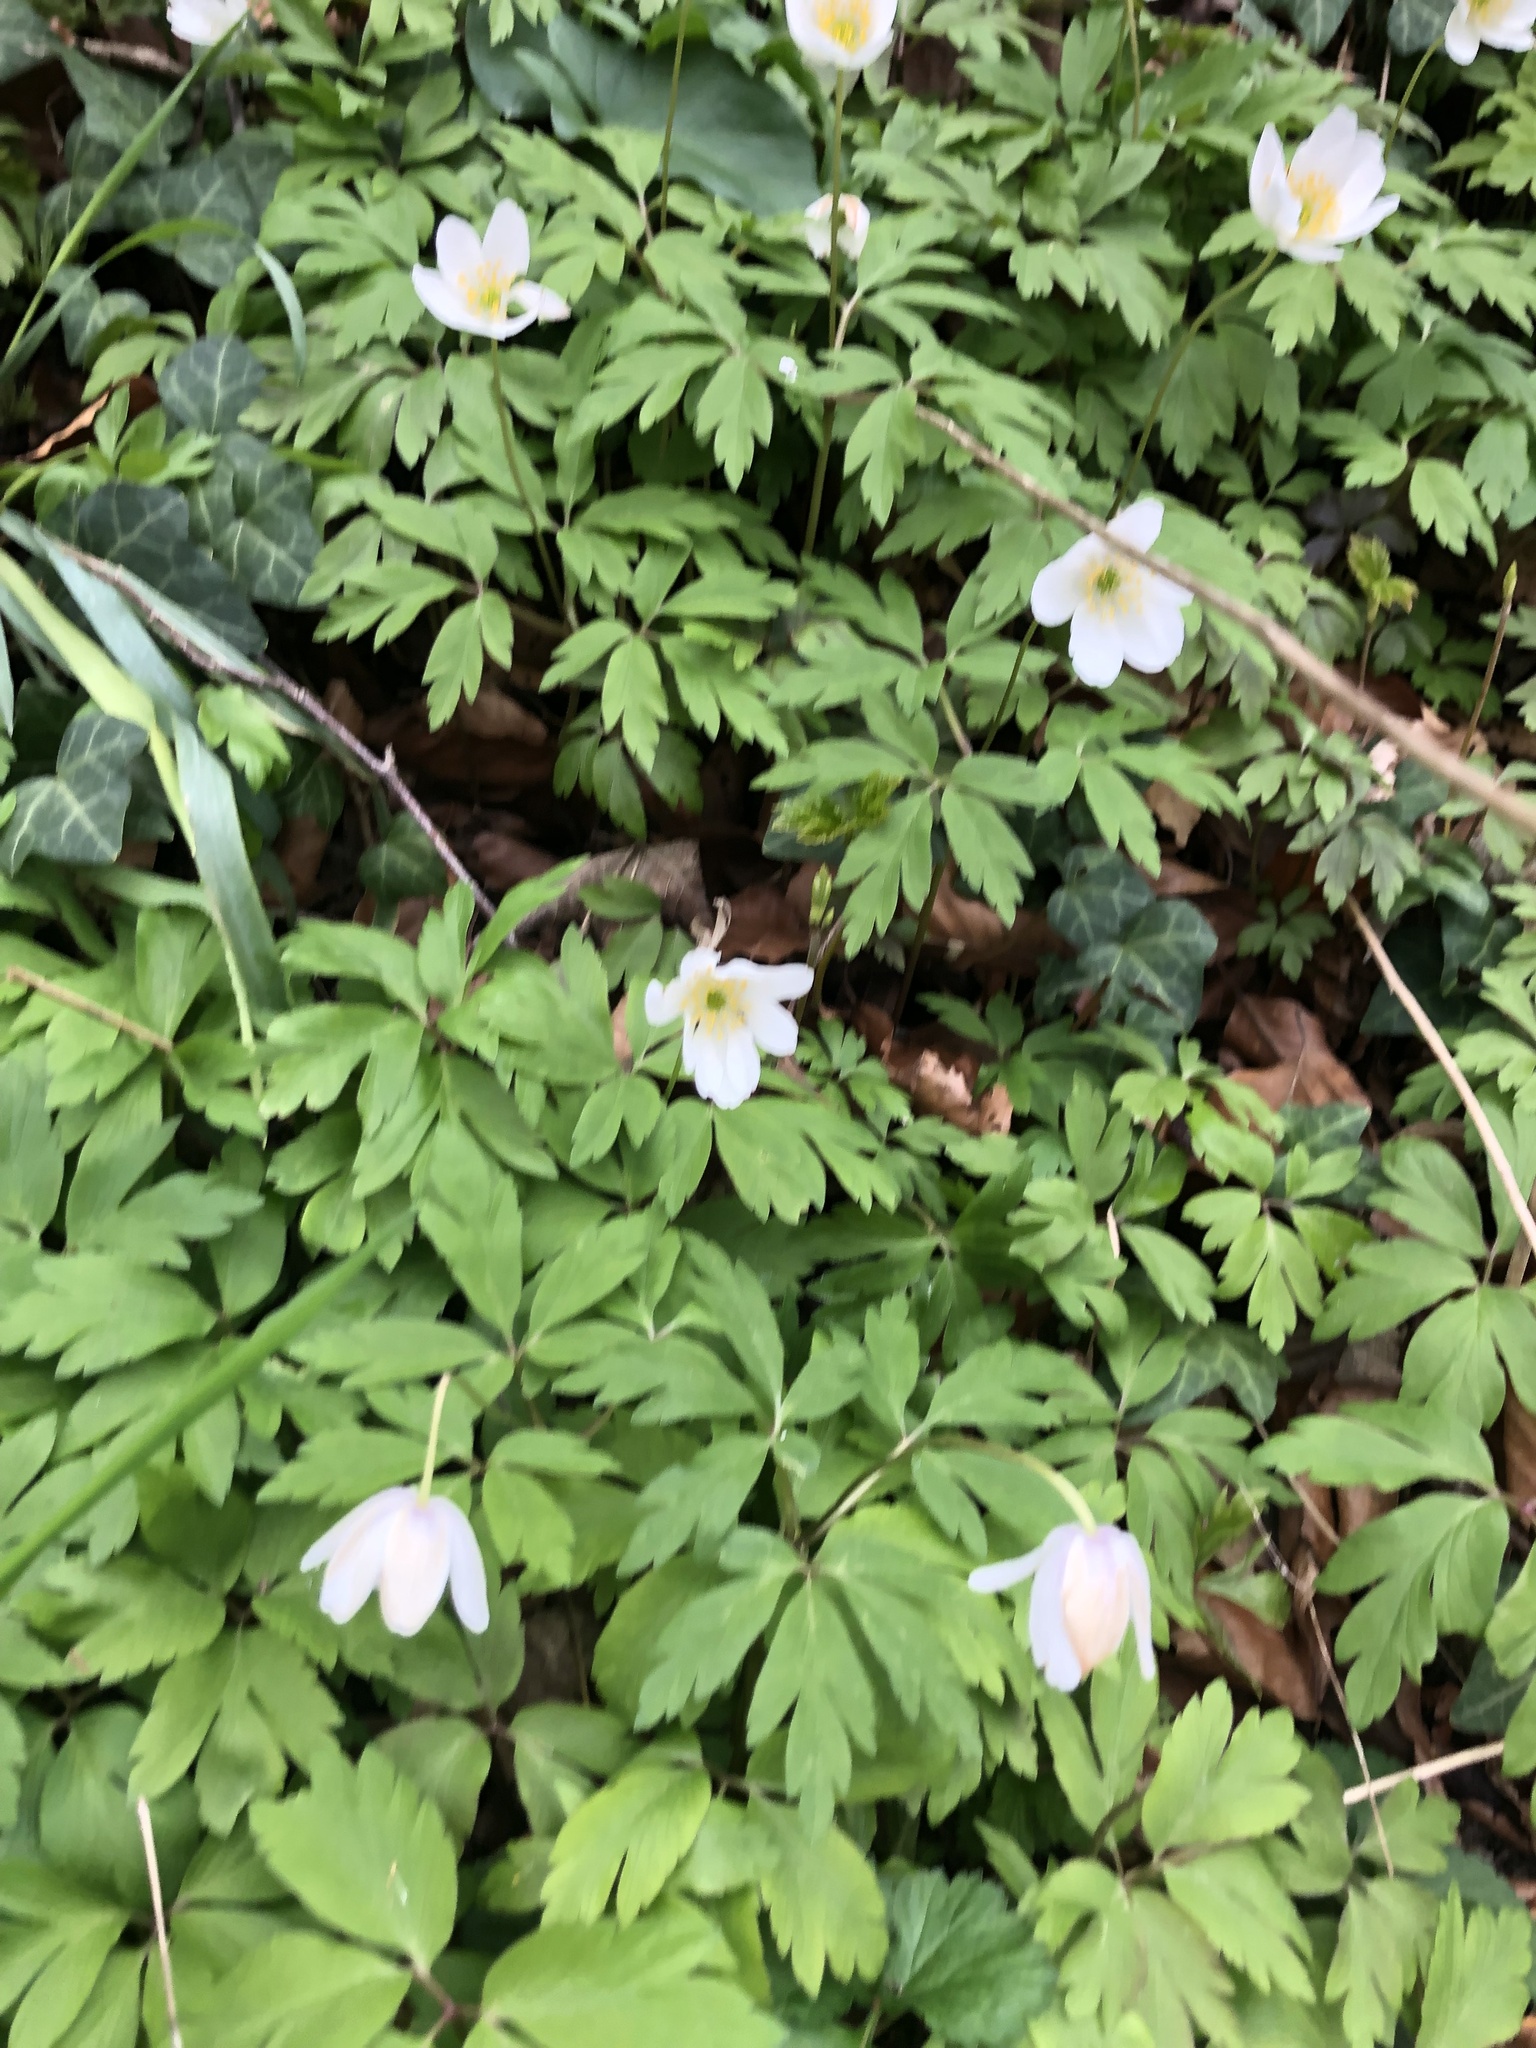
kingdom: Plantae
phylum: Tracheophyta
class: Magnoliopsida
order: Ranunculales
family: Ranunculaceae
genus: Anemone
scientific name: Anemone nemorosa
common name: Wood anemone
